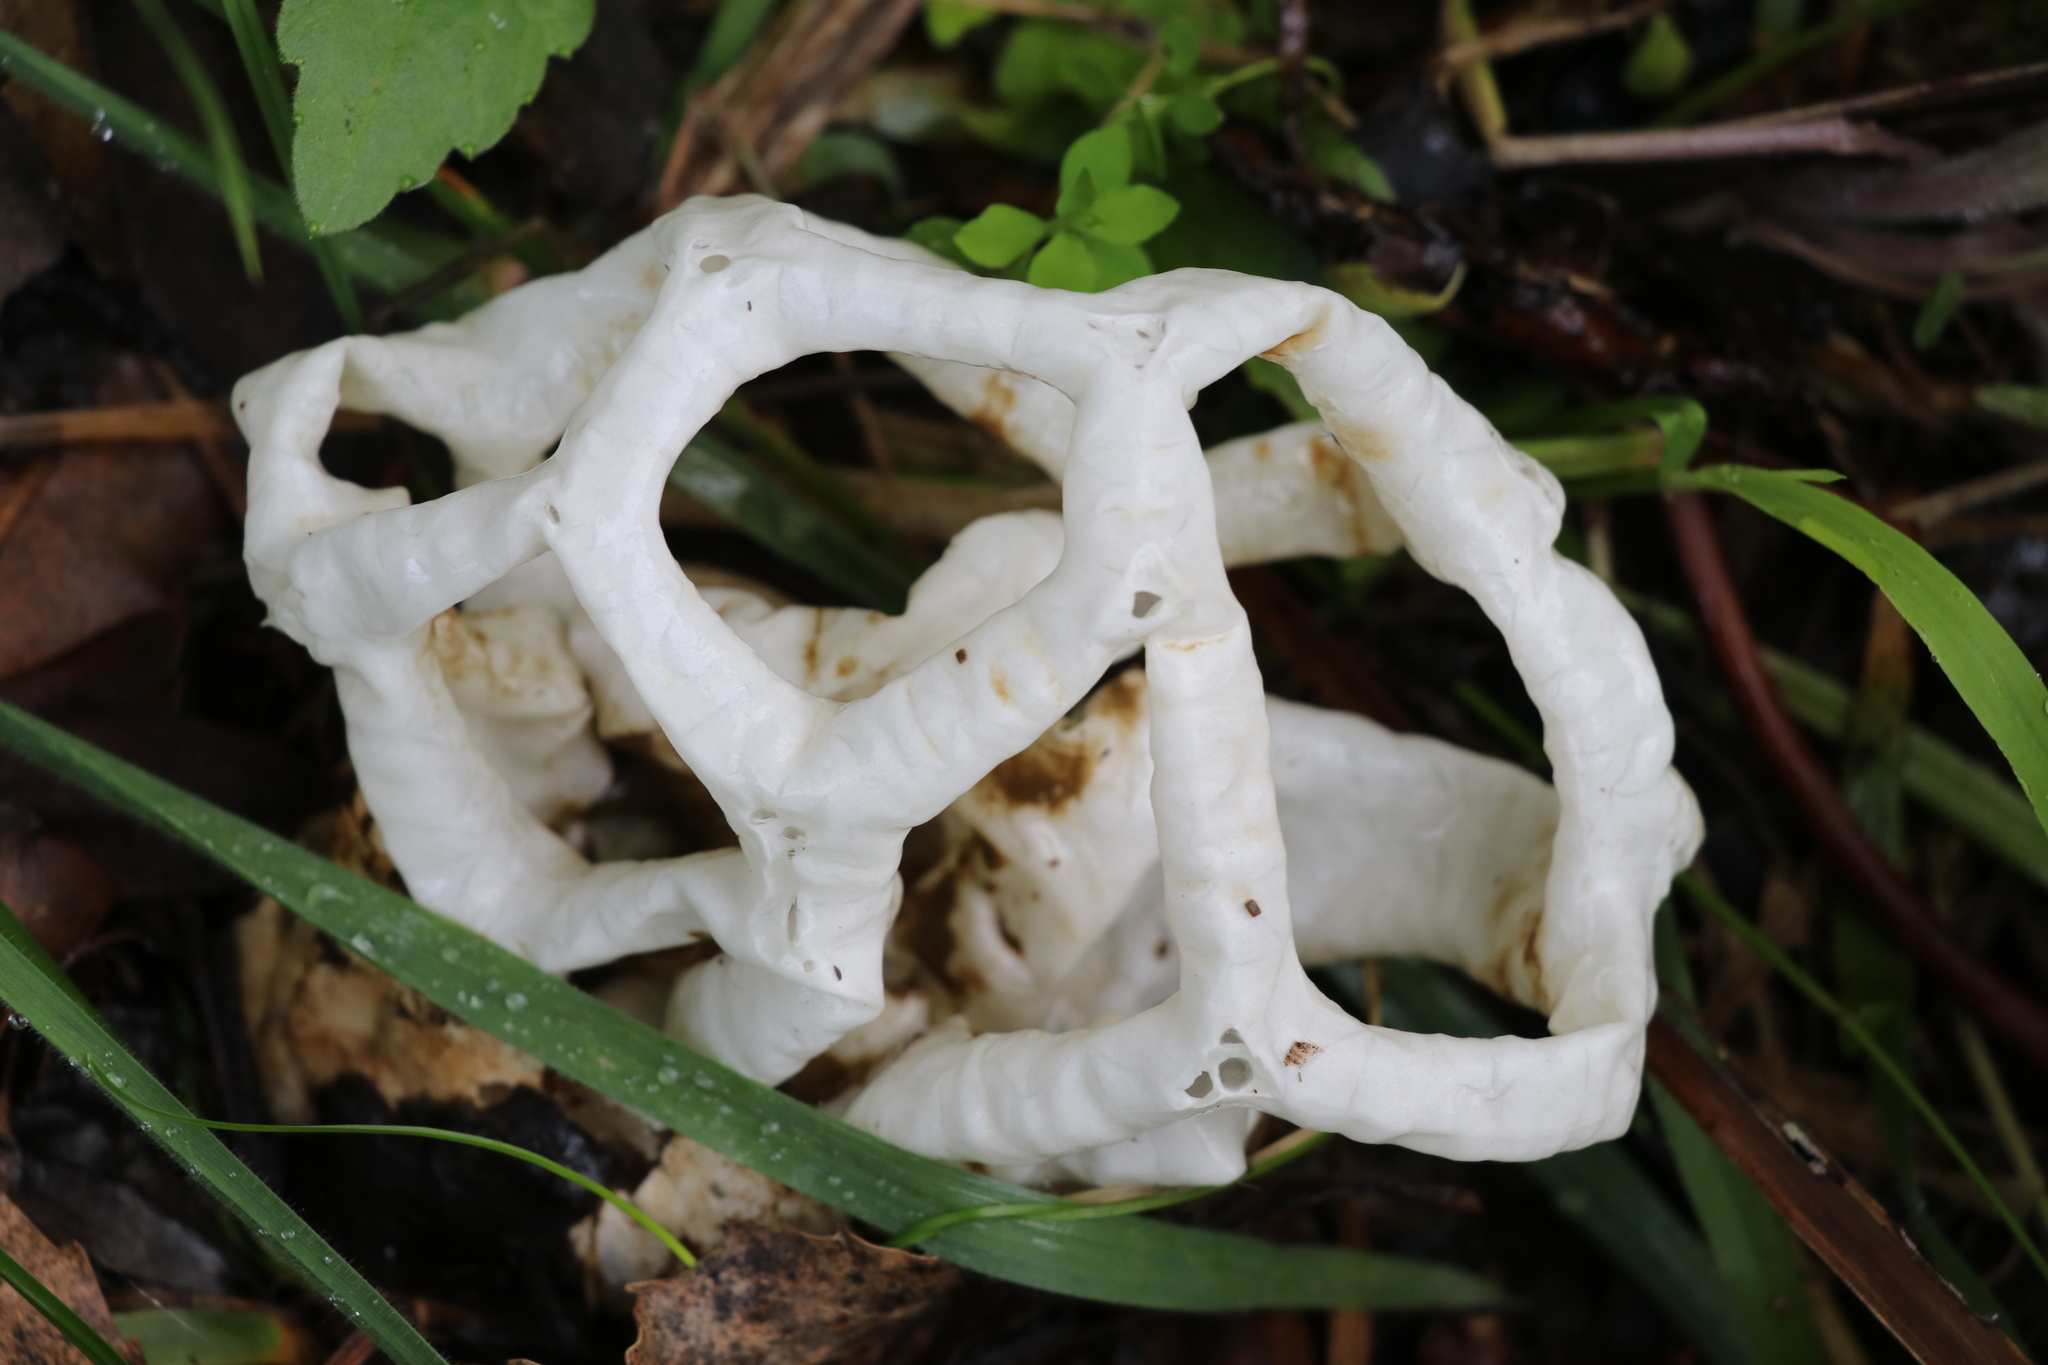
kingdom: Fungi
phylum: Basidiomycota
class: Agaricomycetes
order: Phallales
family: Phallaceae
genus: Ileodictyon
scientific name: Ileodictyon cibarium
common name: Basket fungus
